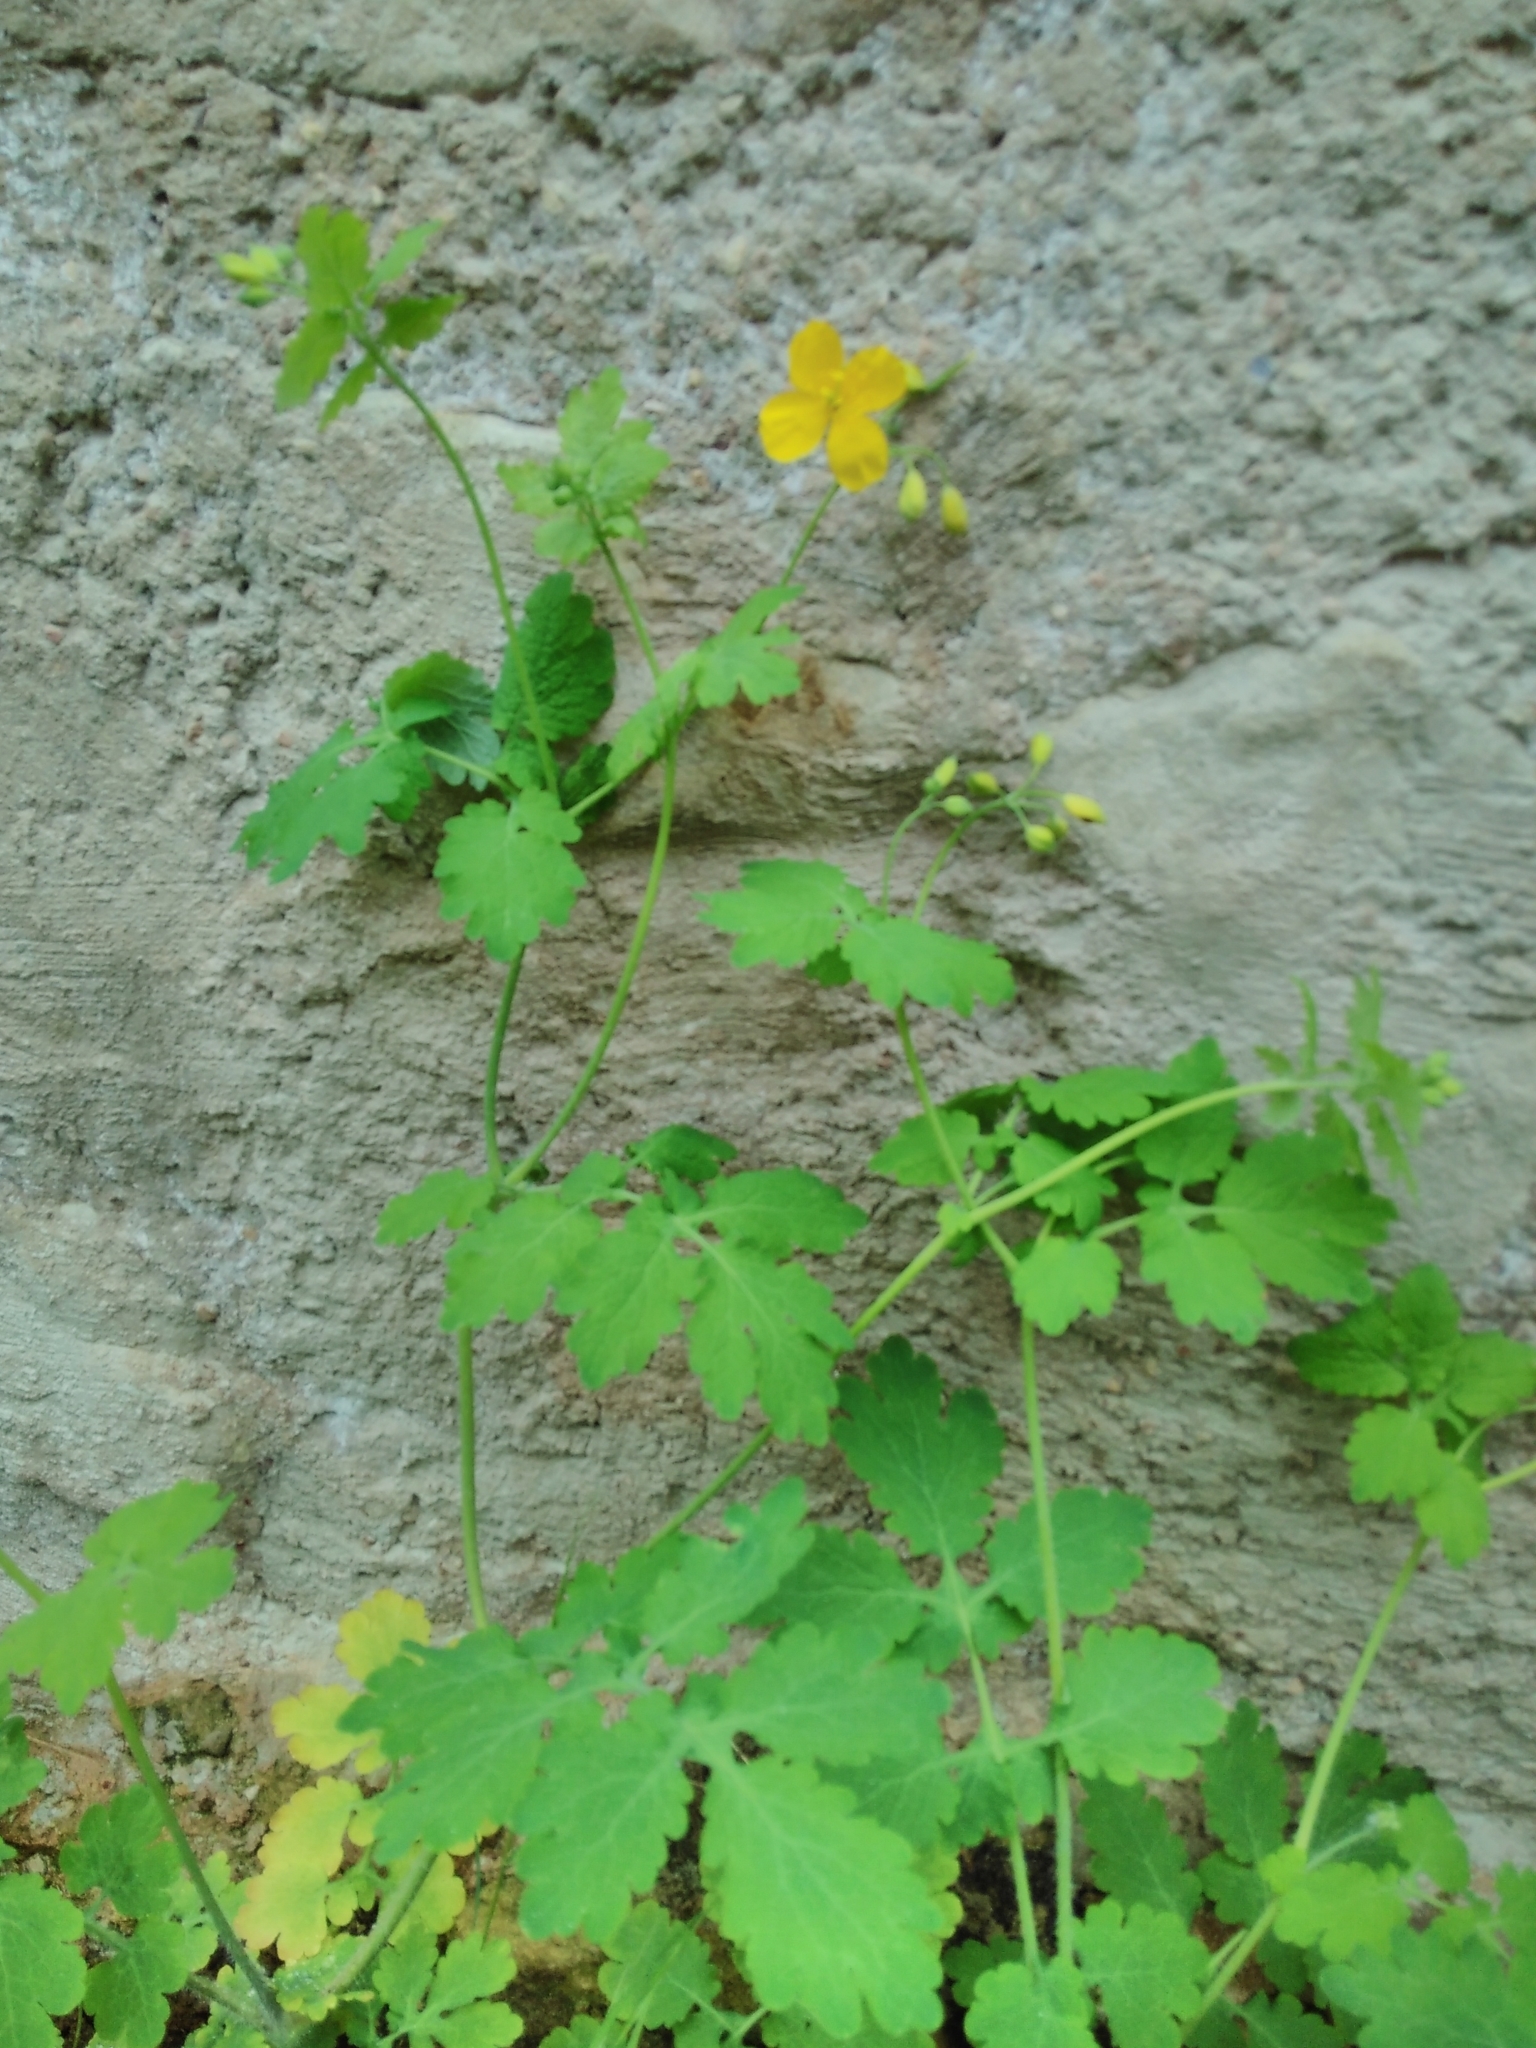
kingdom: Plantae
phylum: Tracheophyta
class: Magnoliopsida
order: Ranunculales
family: Papaveraceae
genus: Chelidonium
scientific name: Chelidonium majus
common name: Greater celandine
